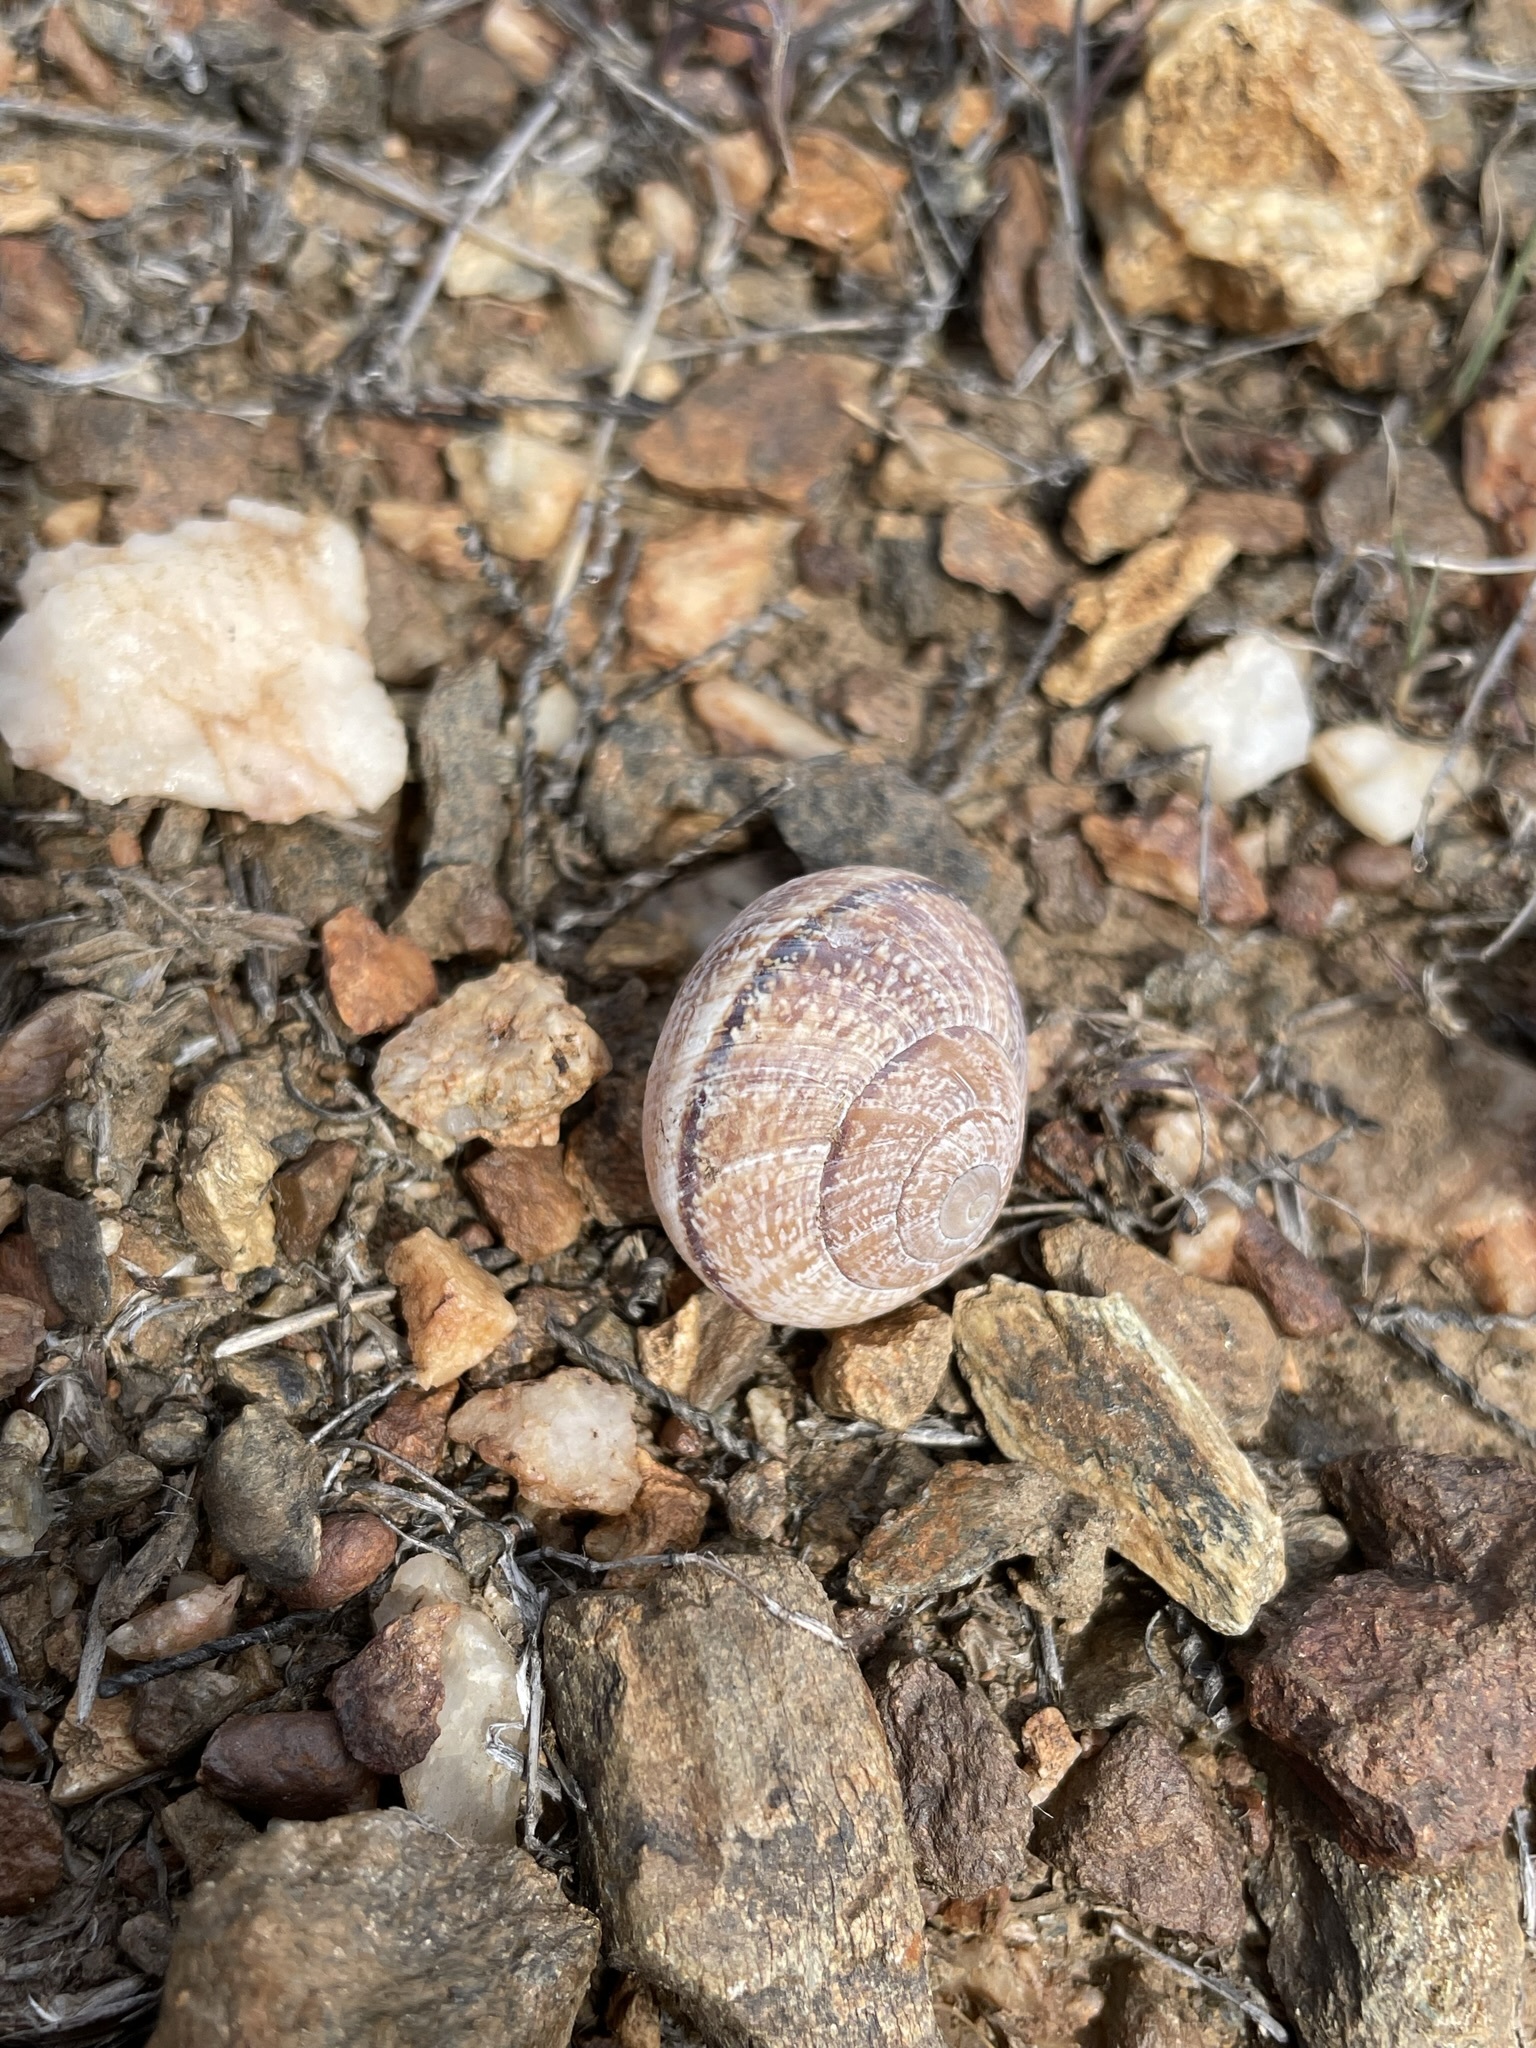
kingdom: Animalia
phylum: Mollusca
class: Gastropoda
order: Stylommatophora
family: Xanthonychidae
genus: Xerarionta
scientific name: Xerarionta kellettii
